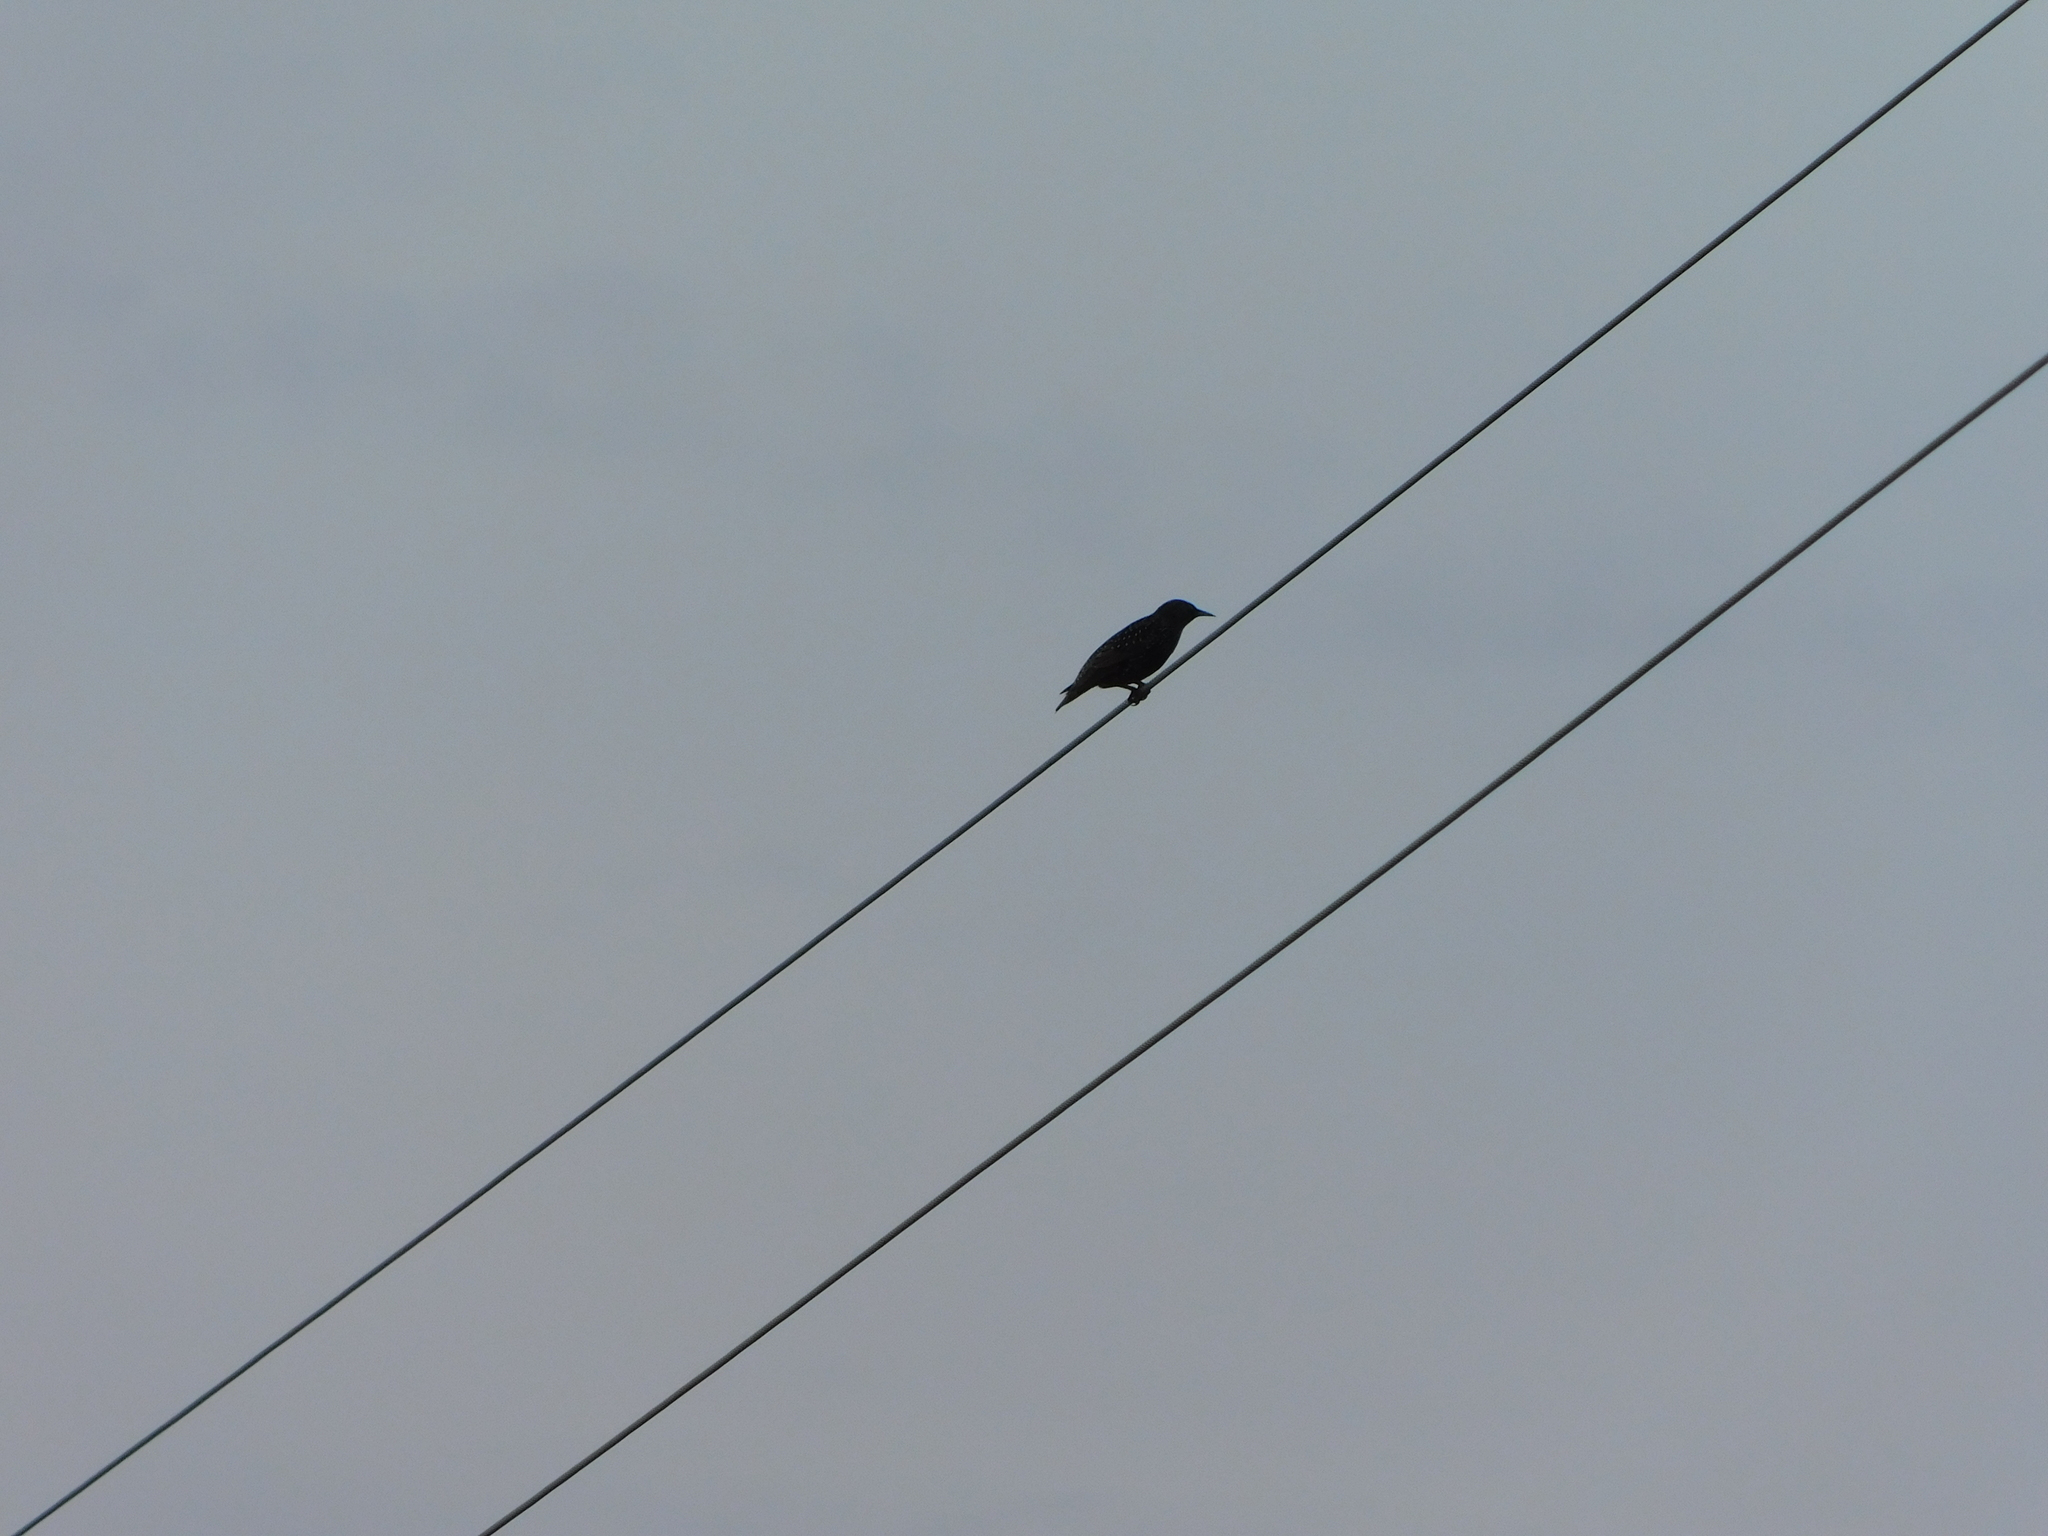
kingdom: Animalia
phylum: Chordata
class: Aves
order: Passeriformes
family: Sturnidae
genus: Sturnus
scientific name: Sturnus vulgaris
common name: Common starling
